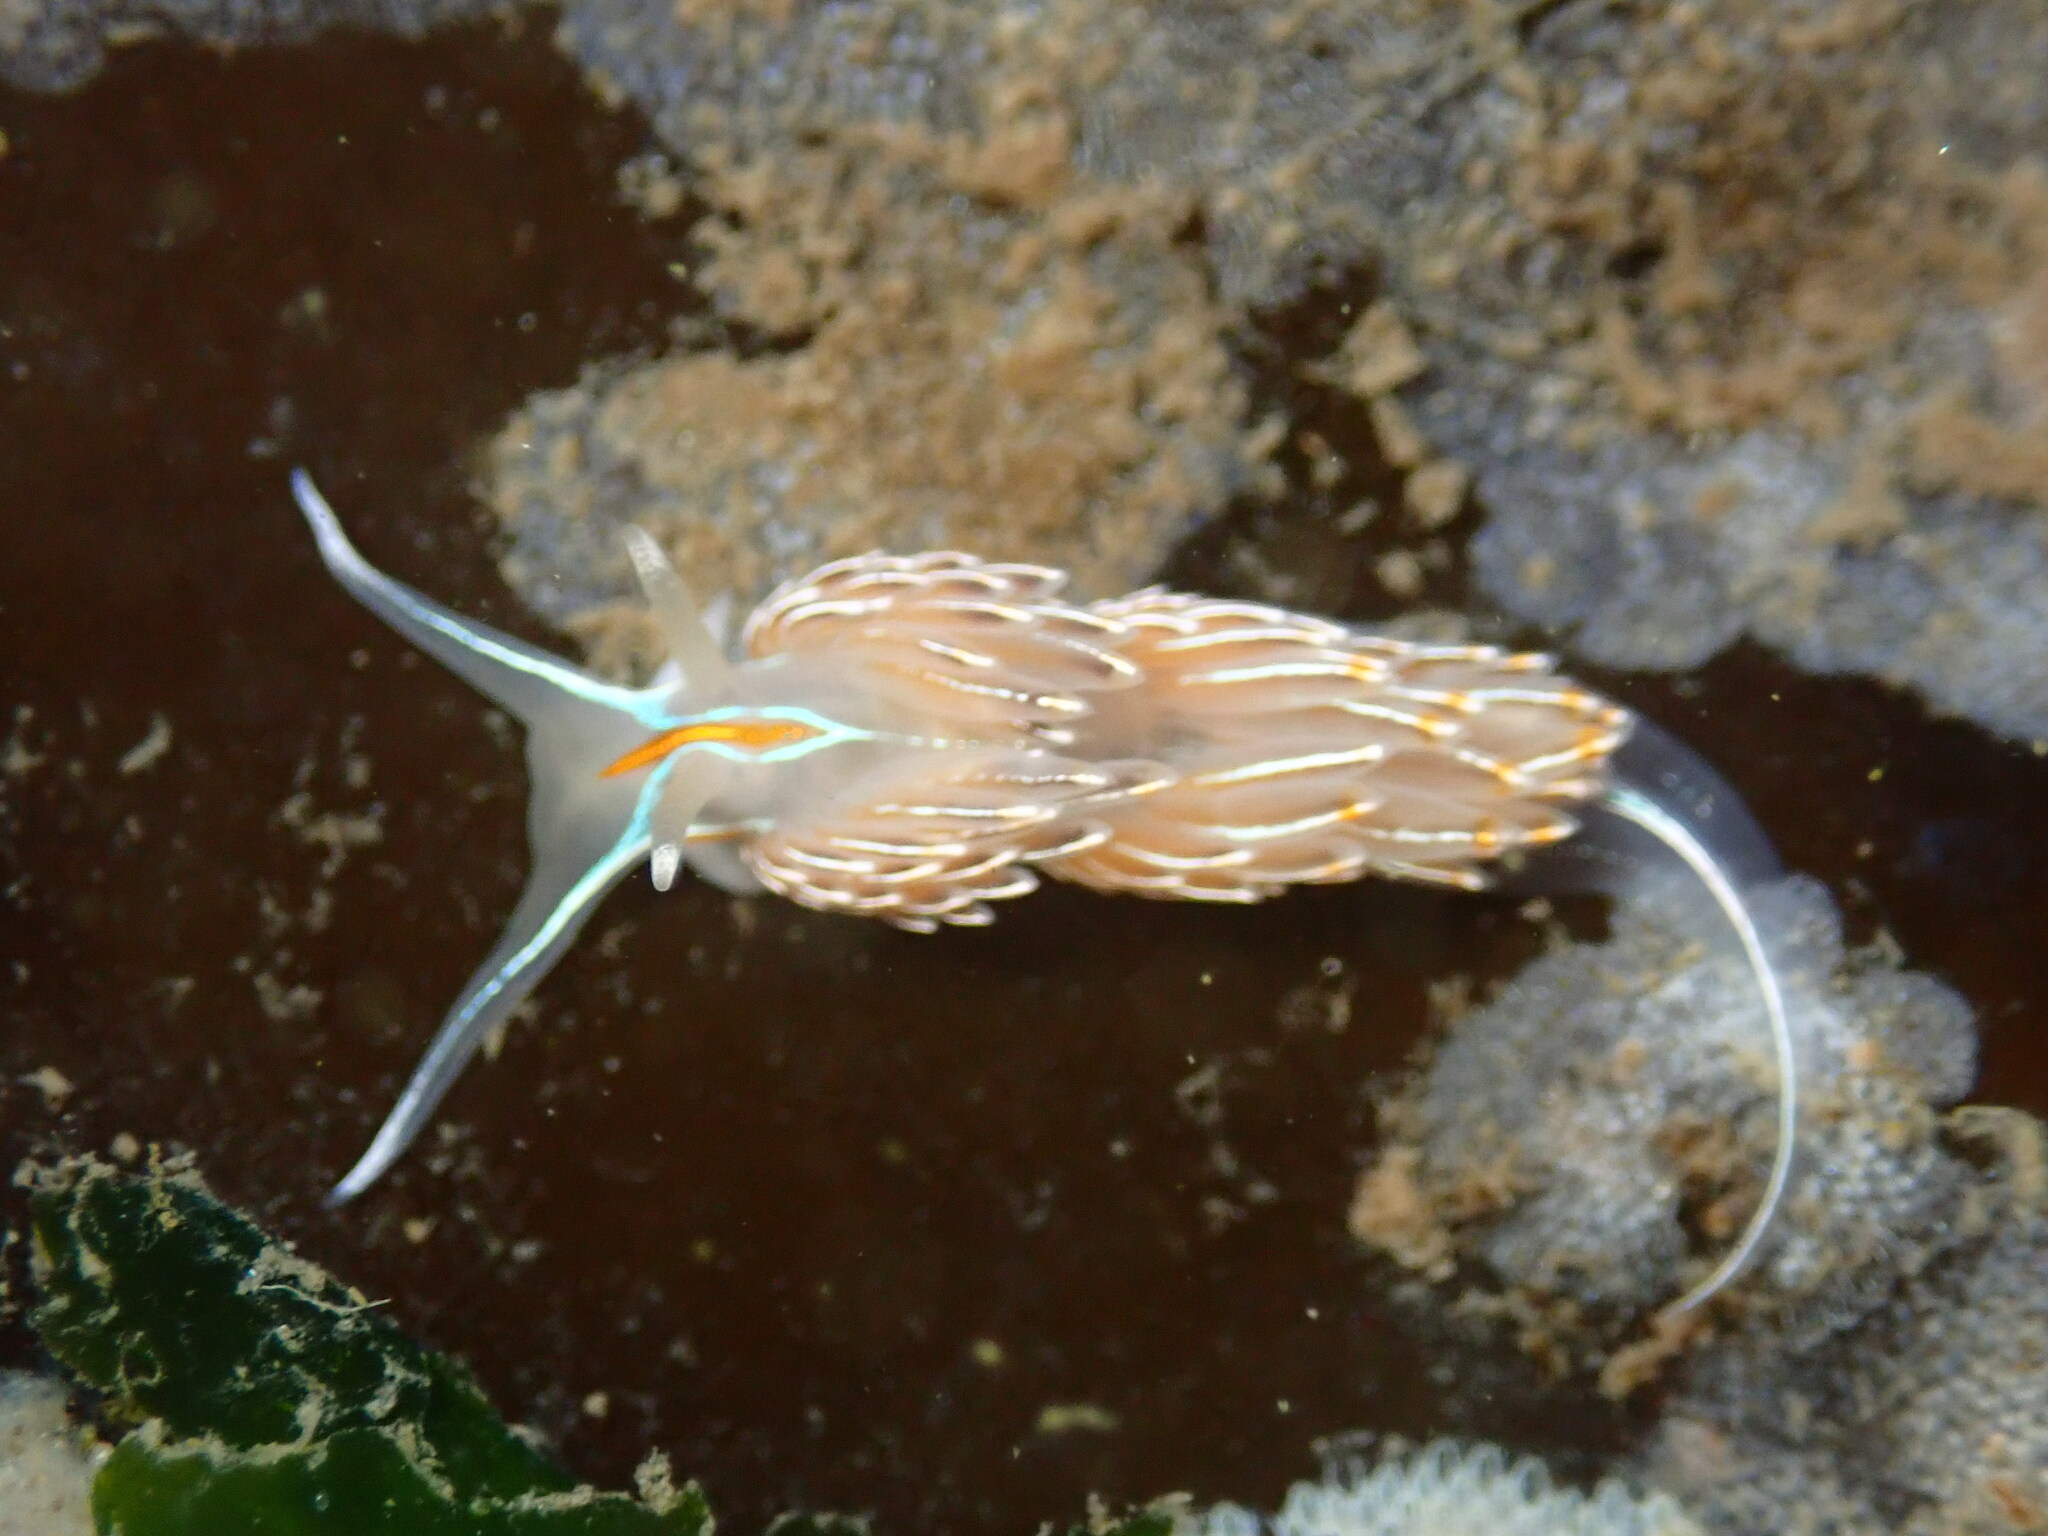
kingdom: Animalia
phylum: Mollusca
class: Gastropoda
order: Nudibranchia
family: Myrrhinidae
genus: Hermissenda
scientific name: Hermissenda crassicornis
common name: Hermissenda
